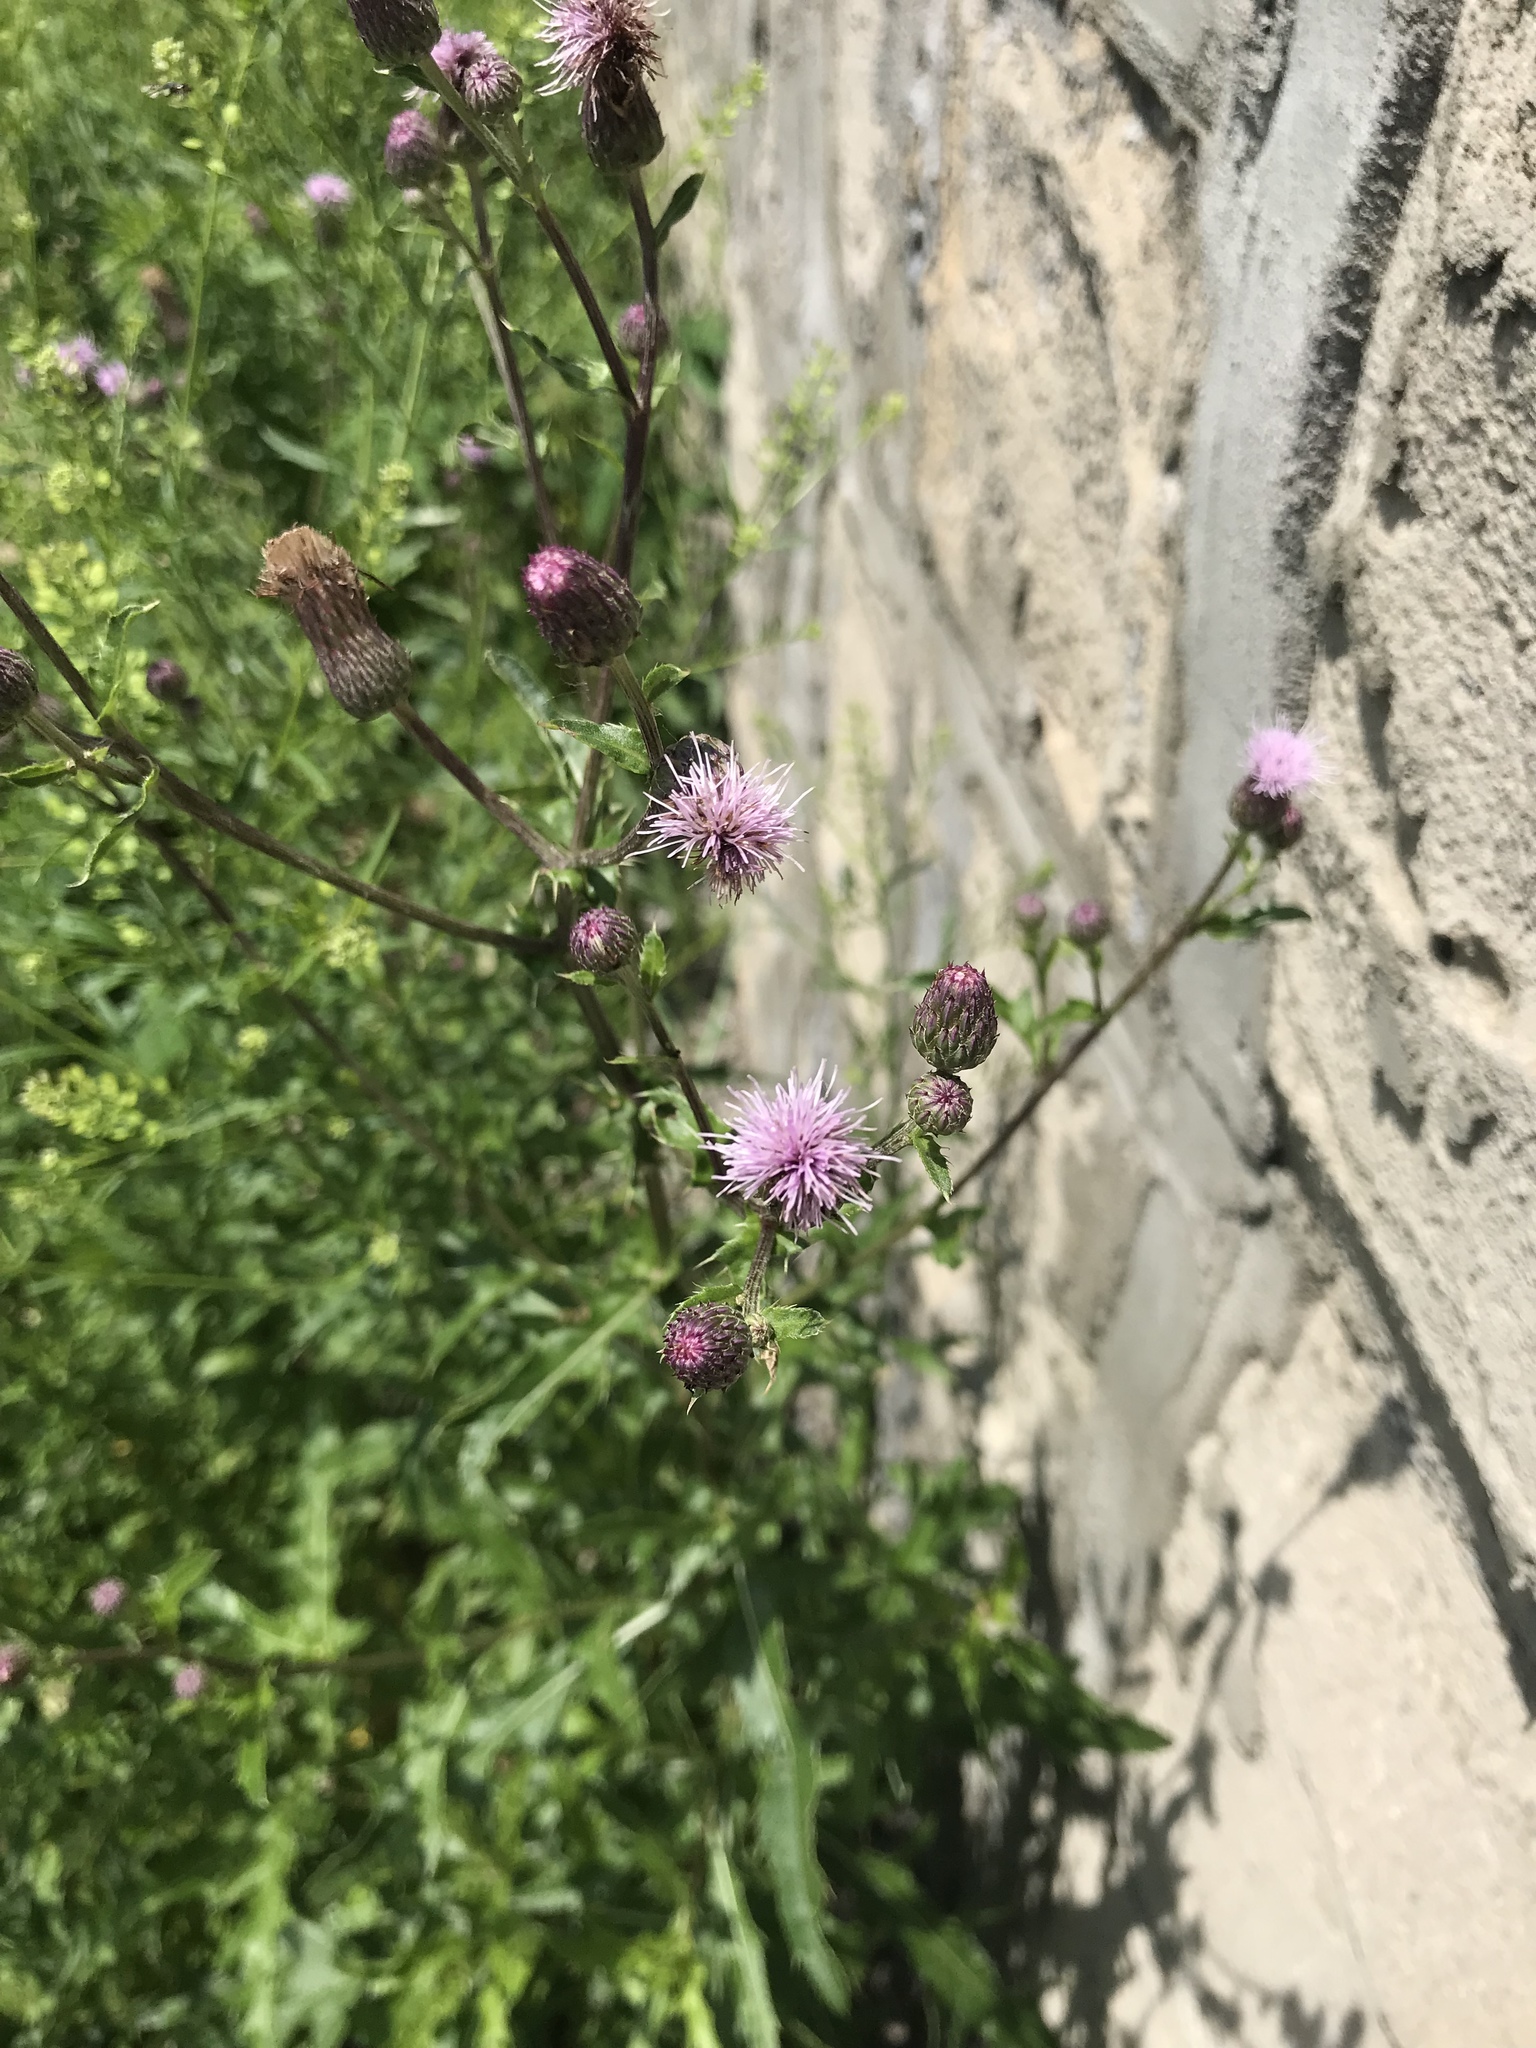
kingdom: Plantae
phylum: Tracheophyta
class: Magnoliopsida
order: Asterales
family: Asteraceae
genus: Cirsium
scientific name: Cirsium arvense
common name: Creeping thistle
